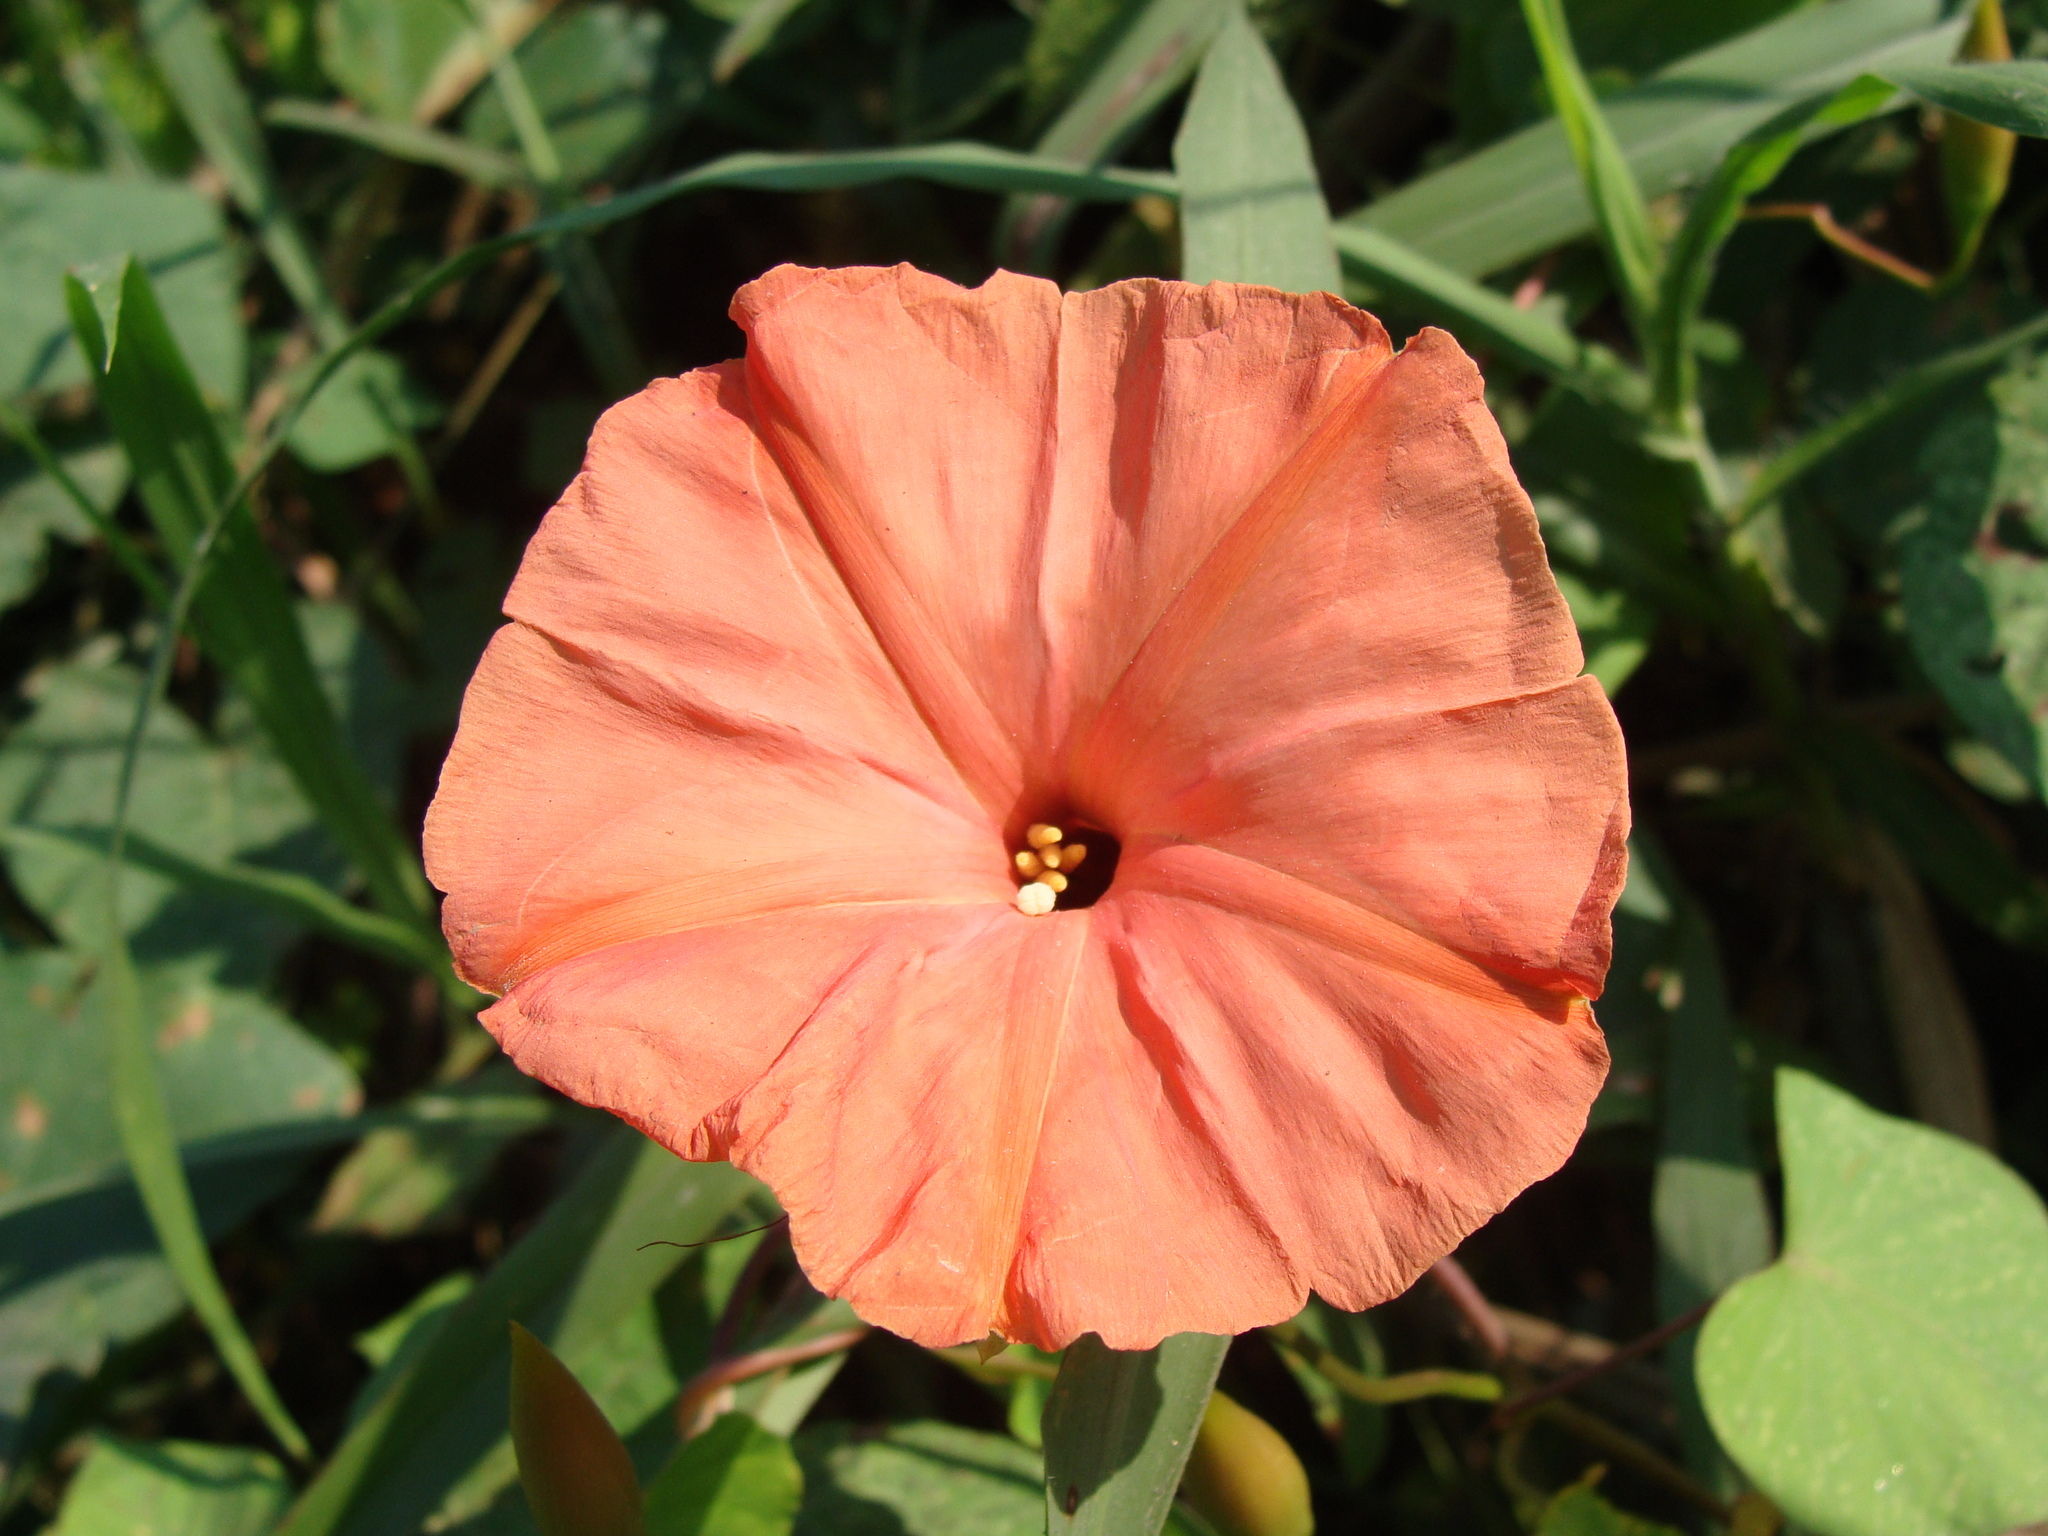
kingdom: Plantae
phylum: Tracheophyta
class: Magnoliopsida
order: Solanales
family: Convolvulaceae
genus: Operculina
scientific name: Operculina pteripes
